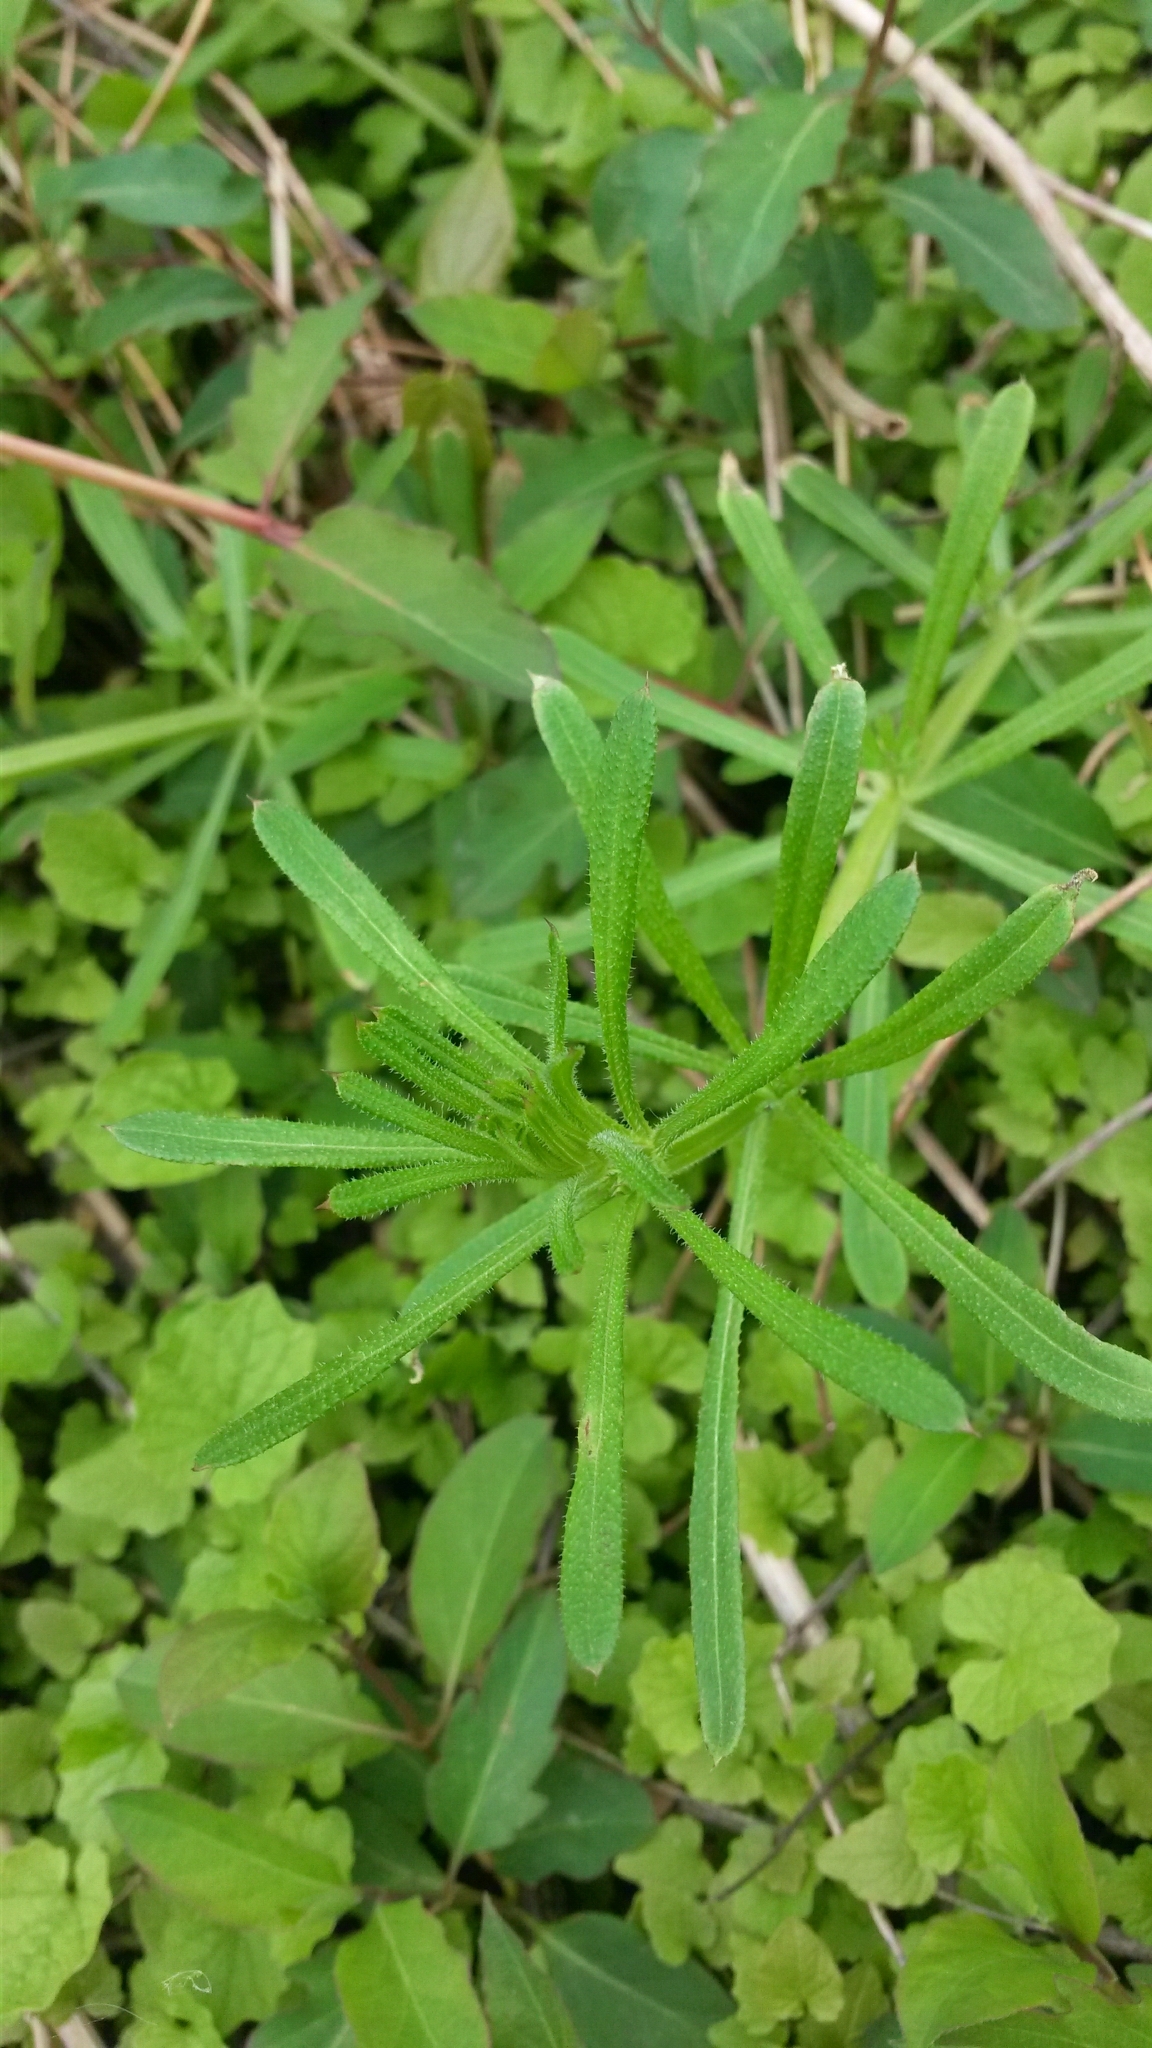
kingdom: Plantae
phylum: Tracheophyta
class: Magnoliopsida
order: Gentianales
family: Rubiaceae
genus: Galium
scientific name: Galium aparine
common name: Cleavers
